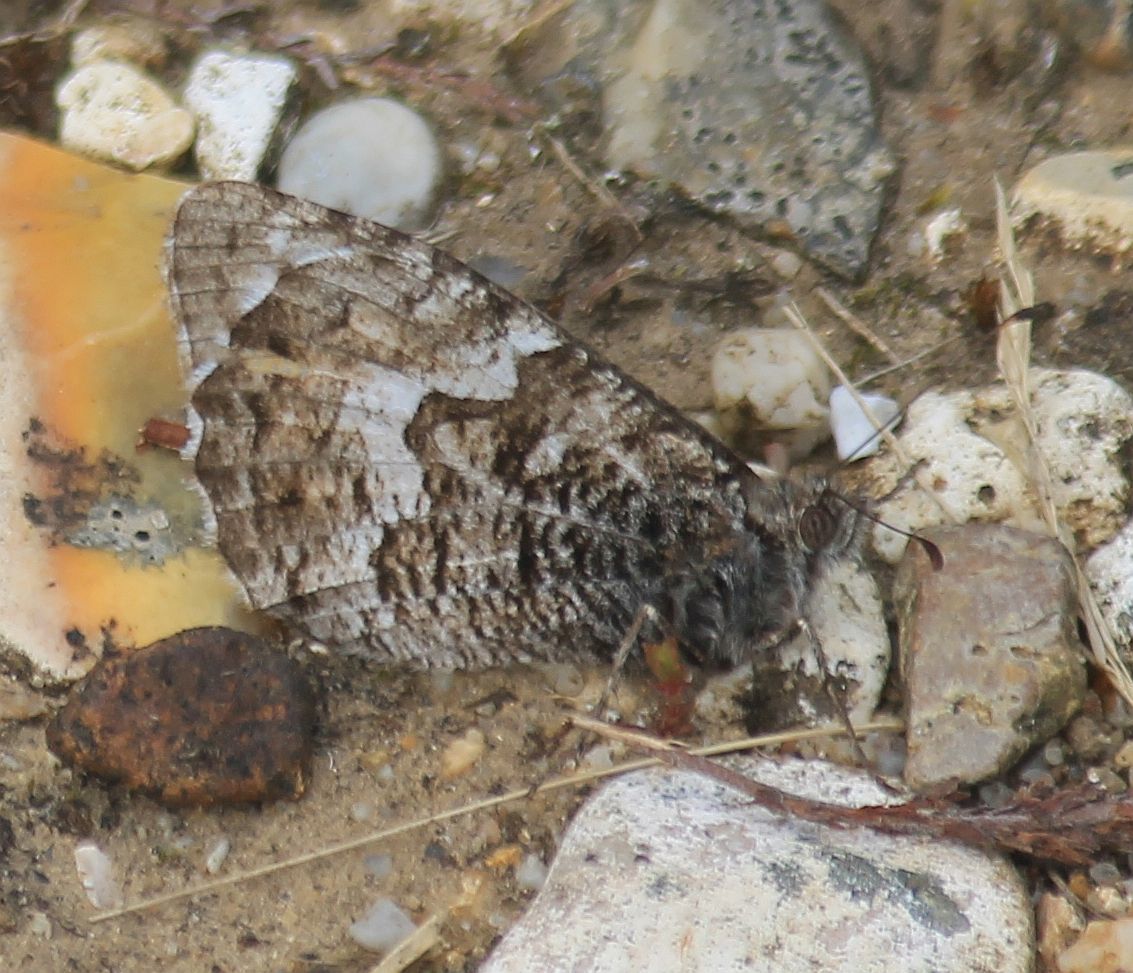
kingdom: Animalia
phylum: Arthropoda
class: Insecta
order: Lepidoptera
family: Nymphalidae
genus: Hipparchia
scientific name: Hipparchia semele
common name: Grayling
